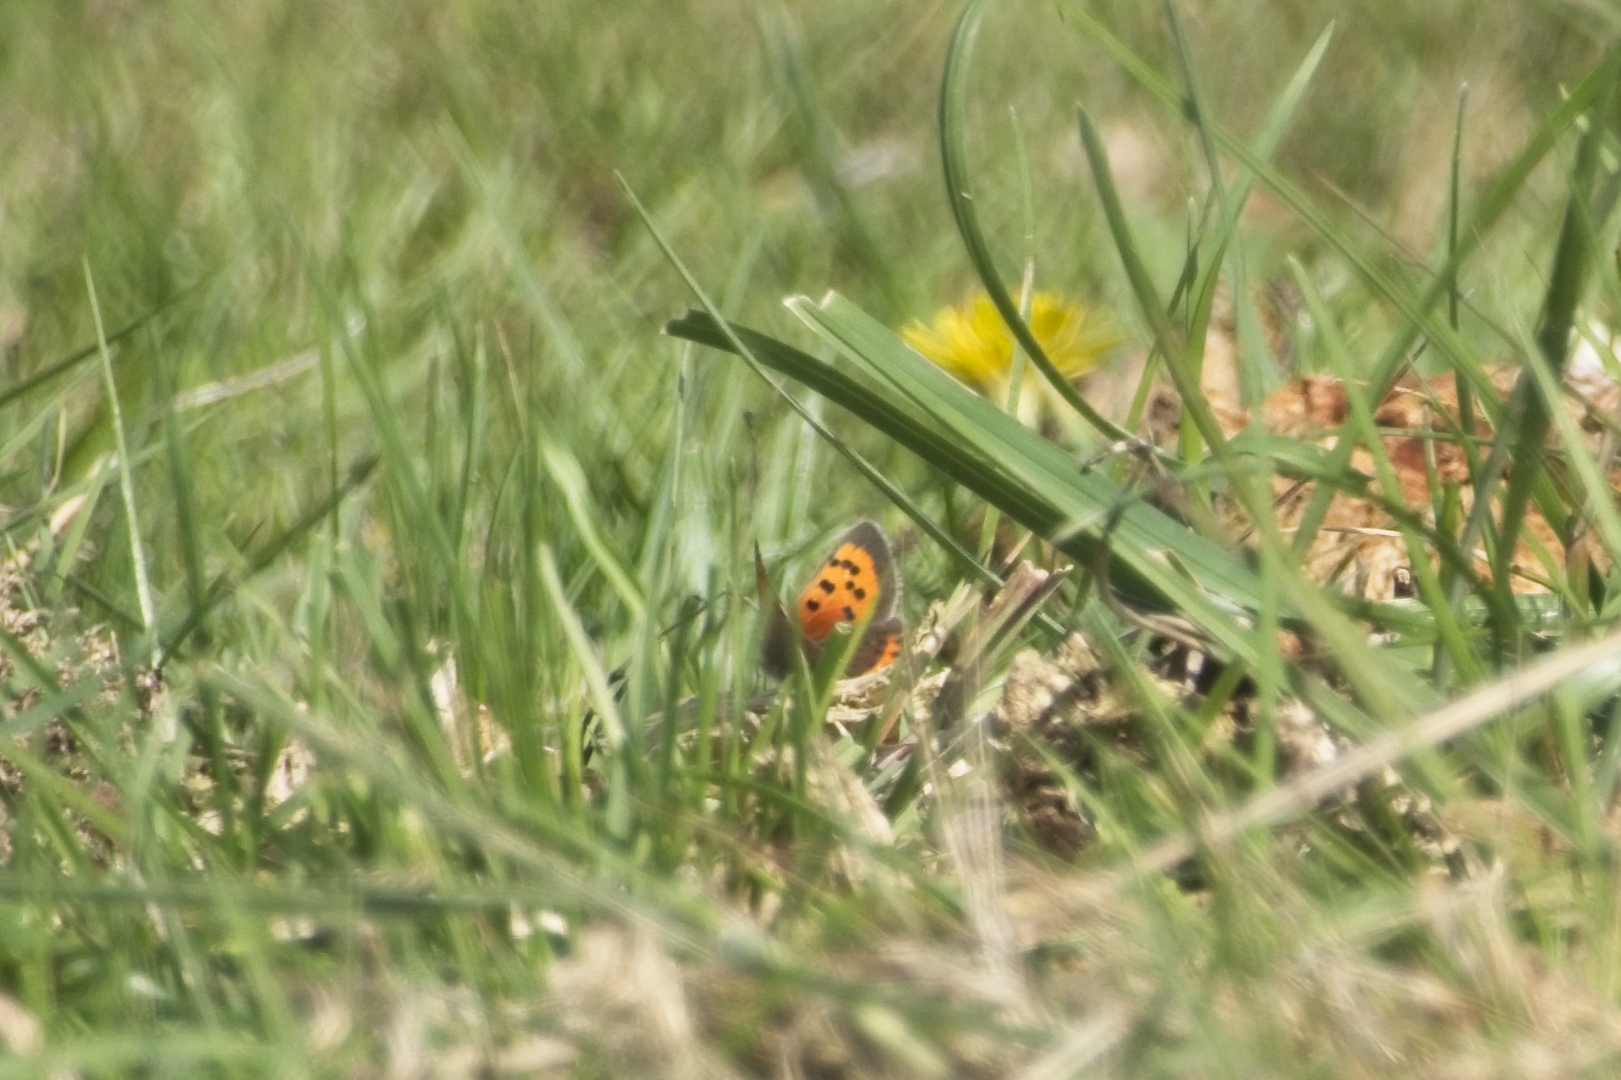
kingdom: Animalia
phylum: Arthropoda
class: Insecta
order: Lepidoptera
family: Lycaenidae
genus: Lycaena
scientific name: Lycaena phlaeas
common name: Small copper
